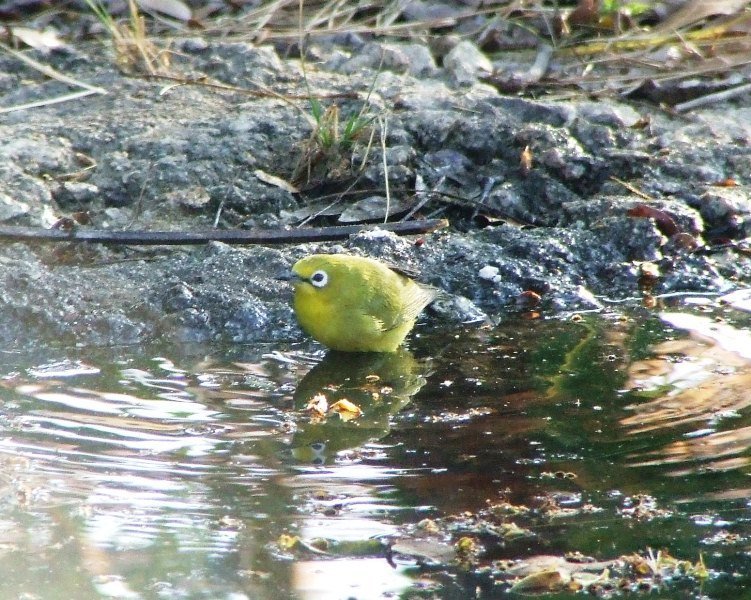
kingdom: Animalia
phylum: Chordata
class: Aves
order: Passeriformes
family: Zosteropidae
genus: Zosterops
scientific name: Zosterops anderssoni
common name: Southern yellow white-eye
